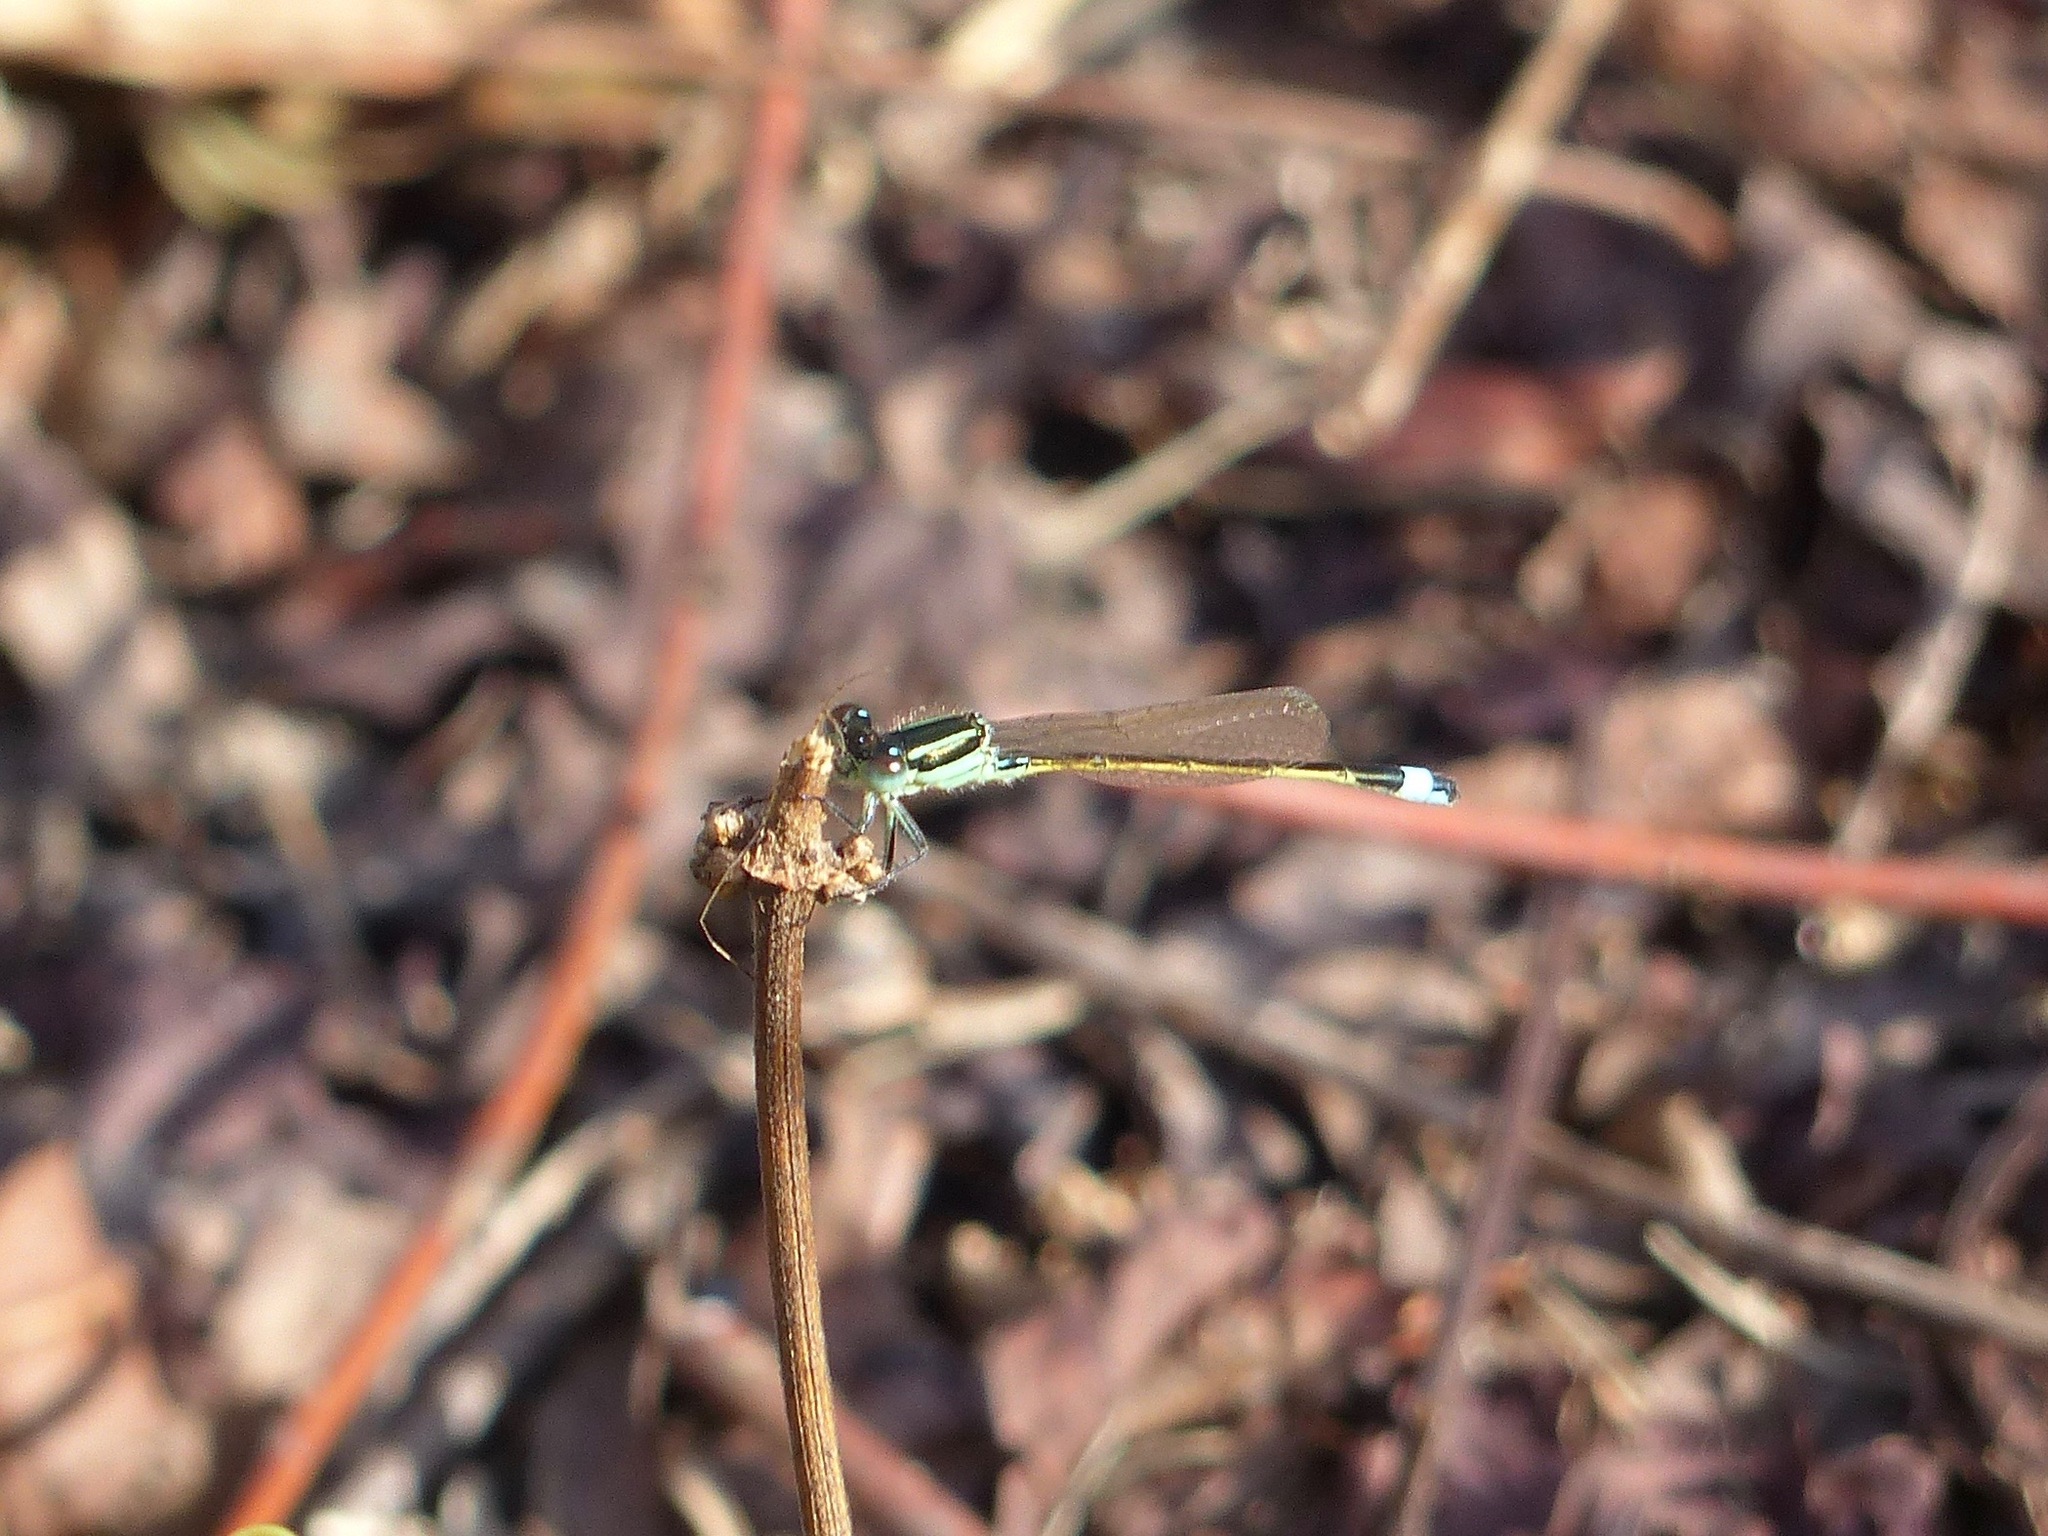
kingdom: Animalia
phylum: Arthropoda
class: Insecta
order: Odonata
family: Coenagrionidae
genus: Ischnura
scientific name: Ischnura ramburii
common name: Rambur's forktail
